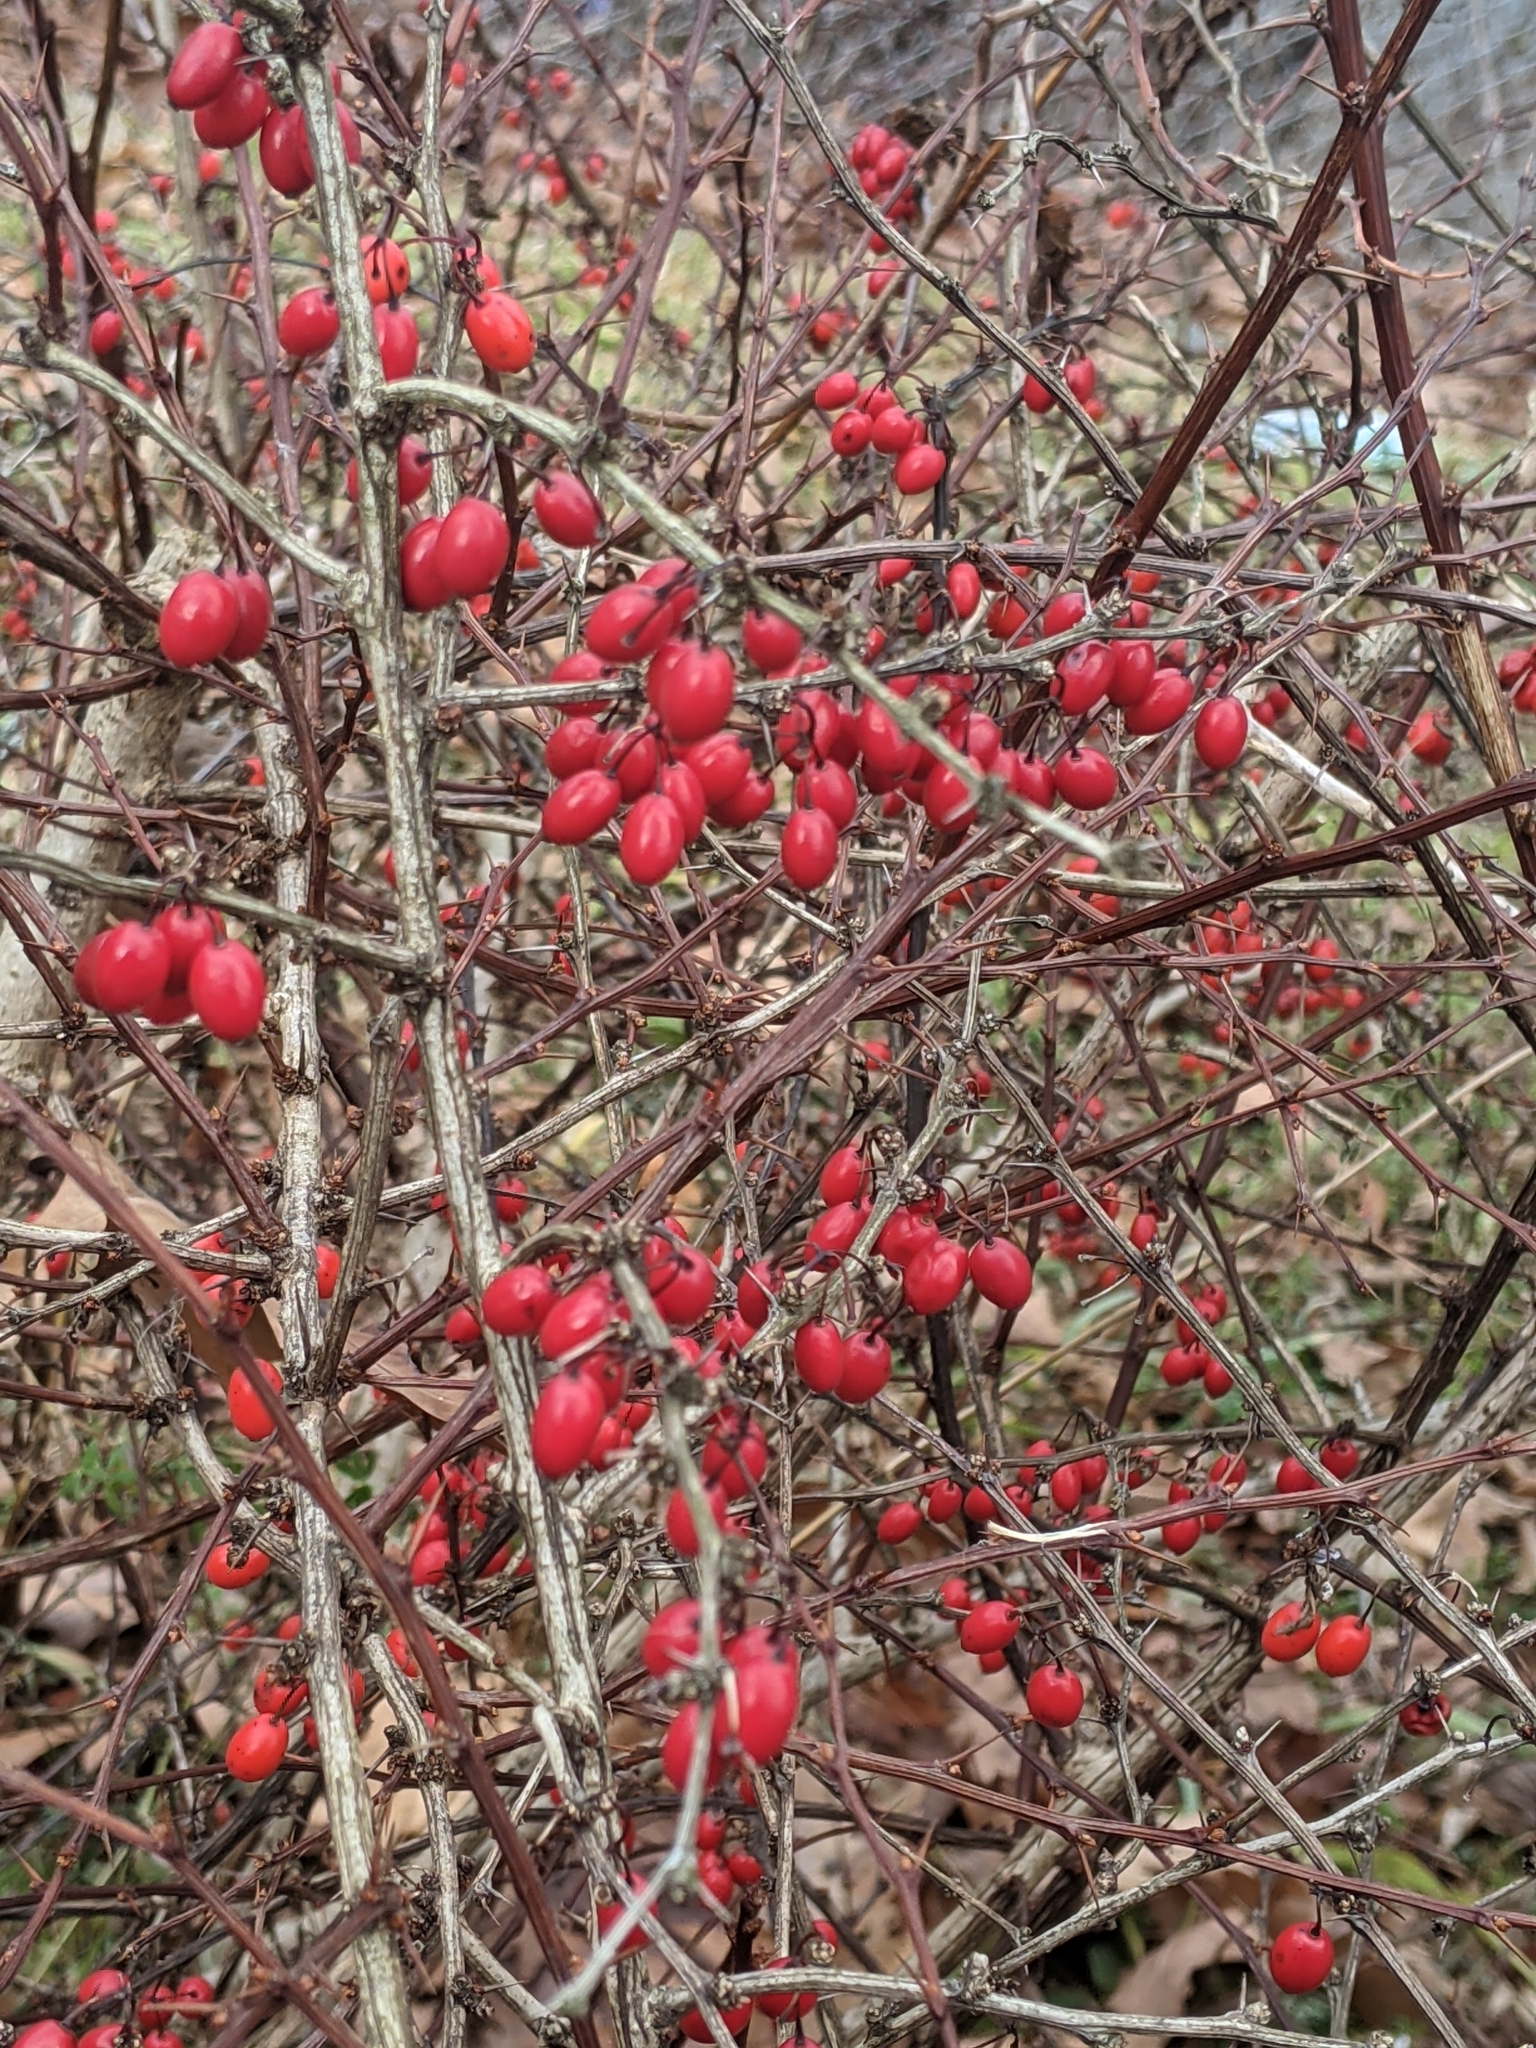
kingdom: Plantae
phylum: Tracheophyta
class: Magnoliopsida
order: Ranunculales
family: Berberidaceae
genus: Berberis
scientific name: Berberis thunbergii
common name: Japanese barberry
